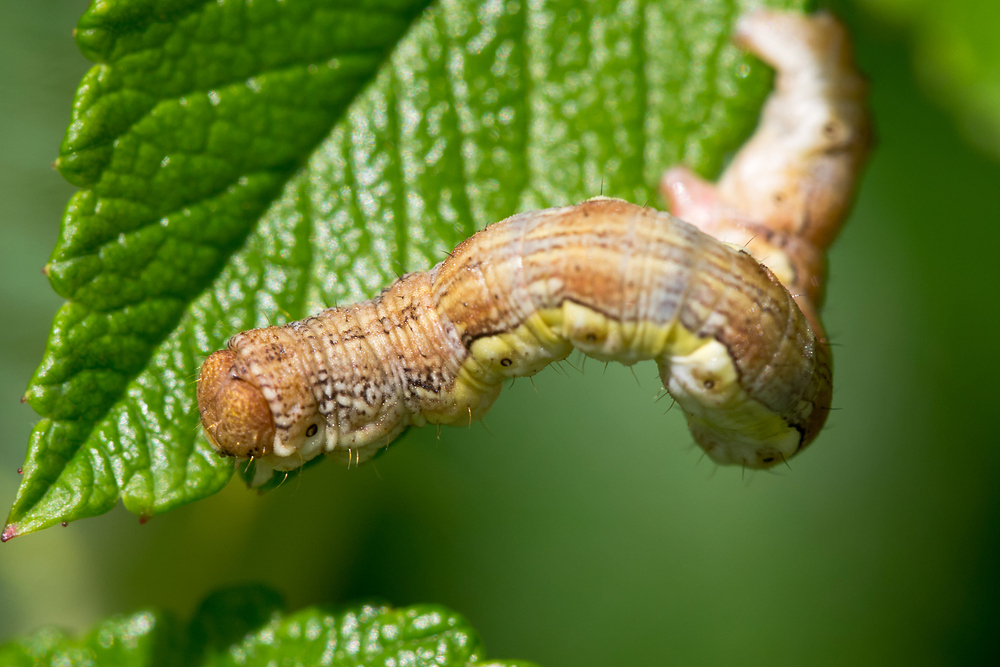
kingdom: Animalia
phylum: Arthropoda
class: Insecta
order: Lepidoptera
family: Geometridae
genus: Erannis
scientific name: Erannis defoliaria
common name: Mottled umber
